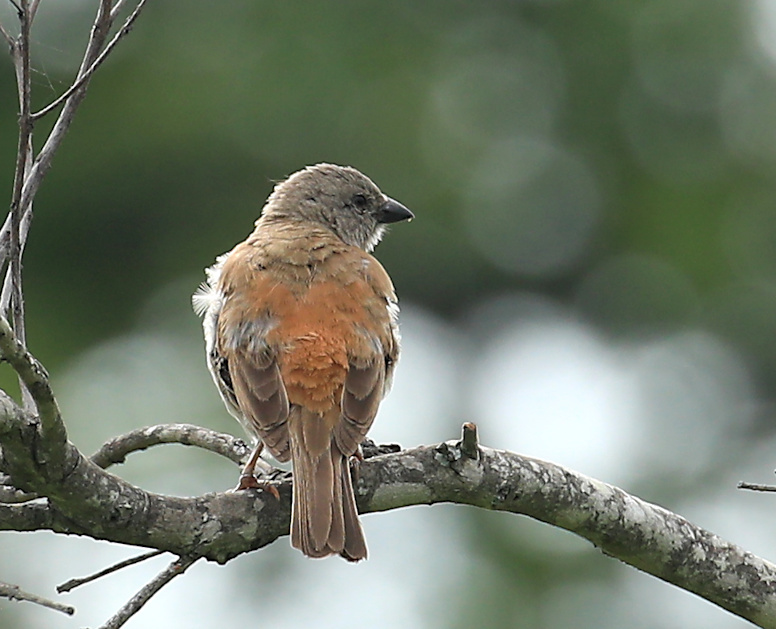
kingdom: Animalia
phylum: Chordata
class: Aves
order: Passeriformes
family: Passeridae
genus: Passer
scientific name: Passer diffusus
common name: Southern grey-headed sparrow
